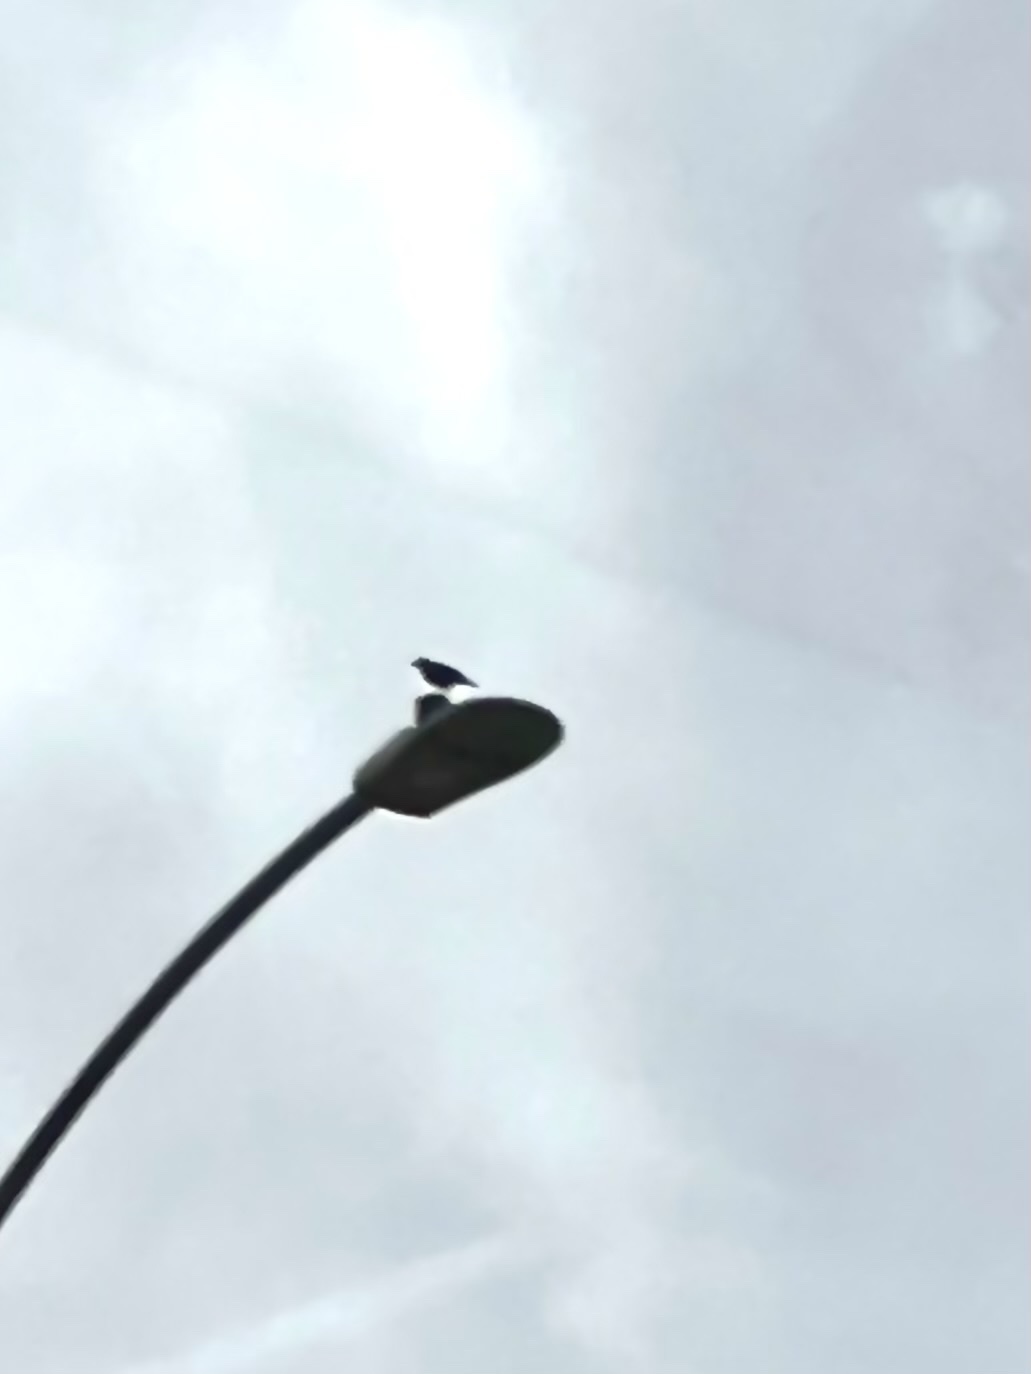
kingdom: Animalia
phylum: Chordata
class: Aves
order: Passeriformes
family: Sturnidae
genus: Sturnus
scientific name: Sturnus vulgaris
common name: Common starling
